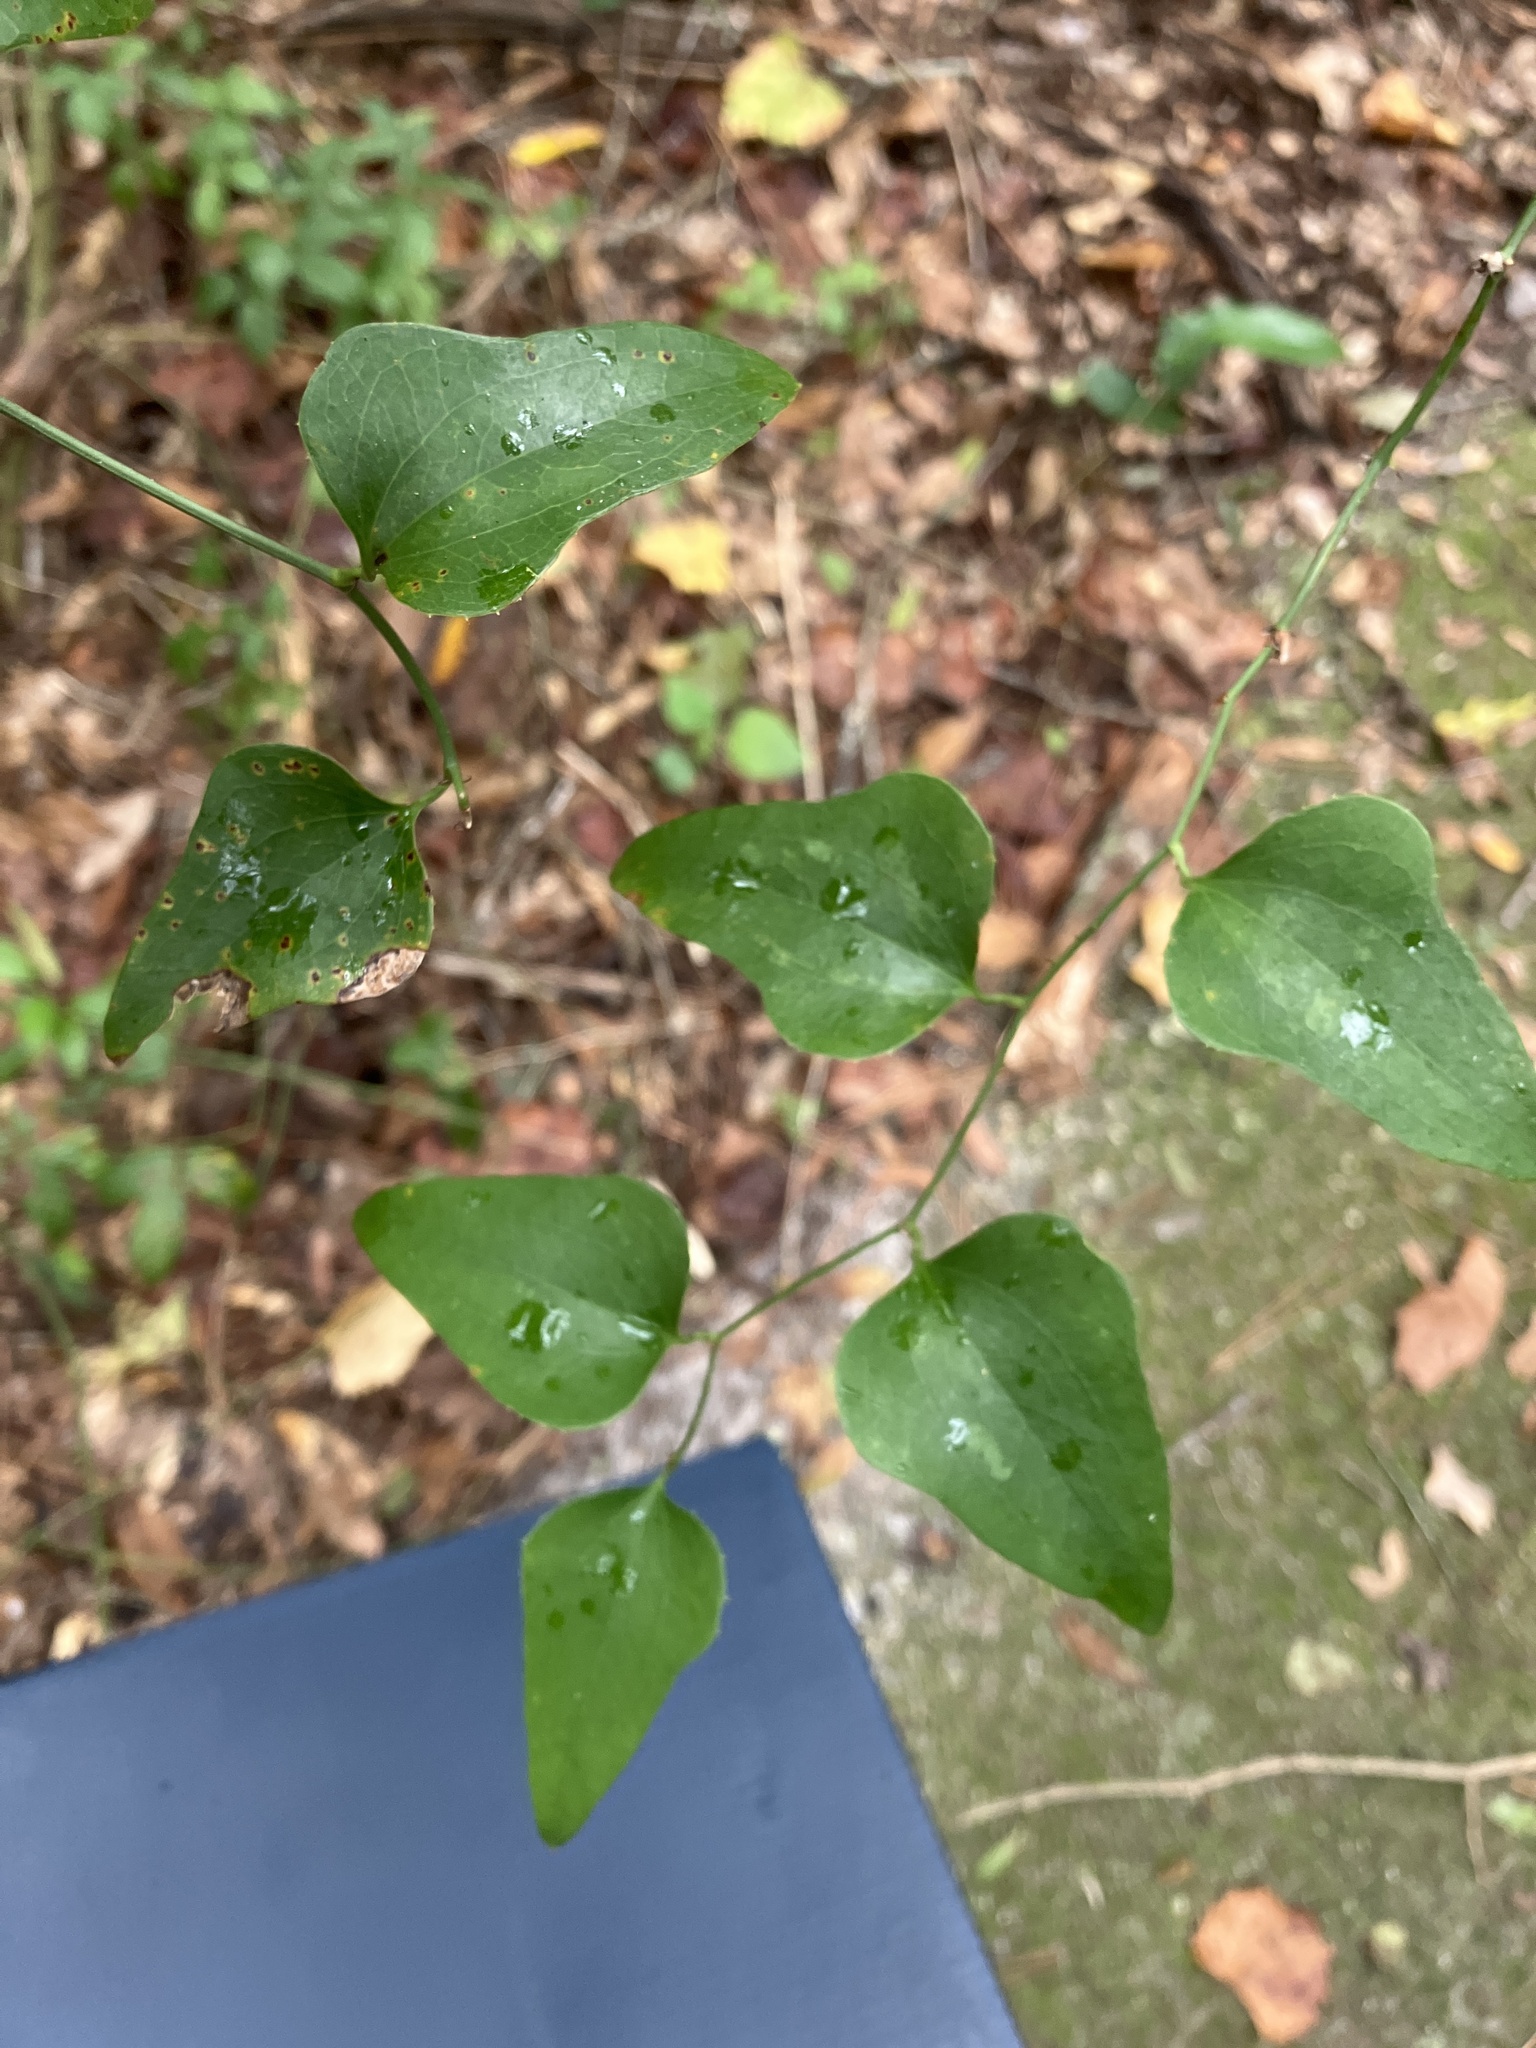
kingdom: Plantae
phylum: Tracheophyta
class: Liliopsida
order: Liliales
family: Smilacaceae
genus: Smilax
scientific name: Smilax bona-nox
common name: Catbrier
